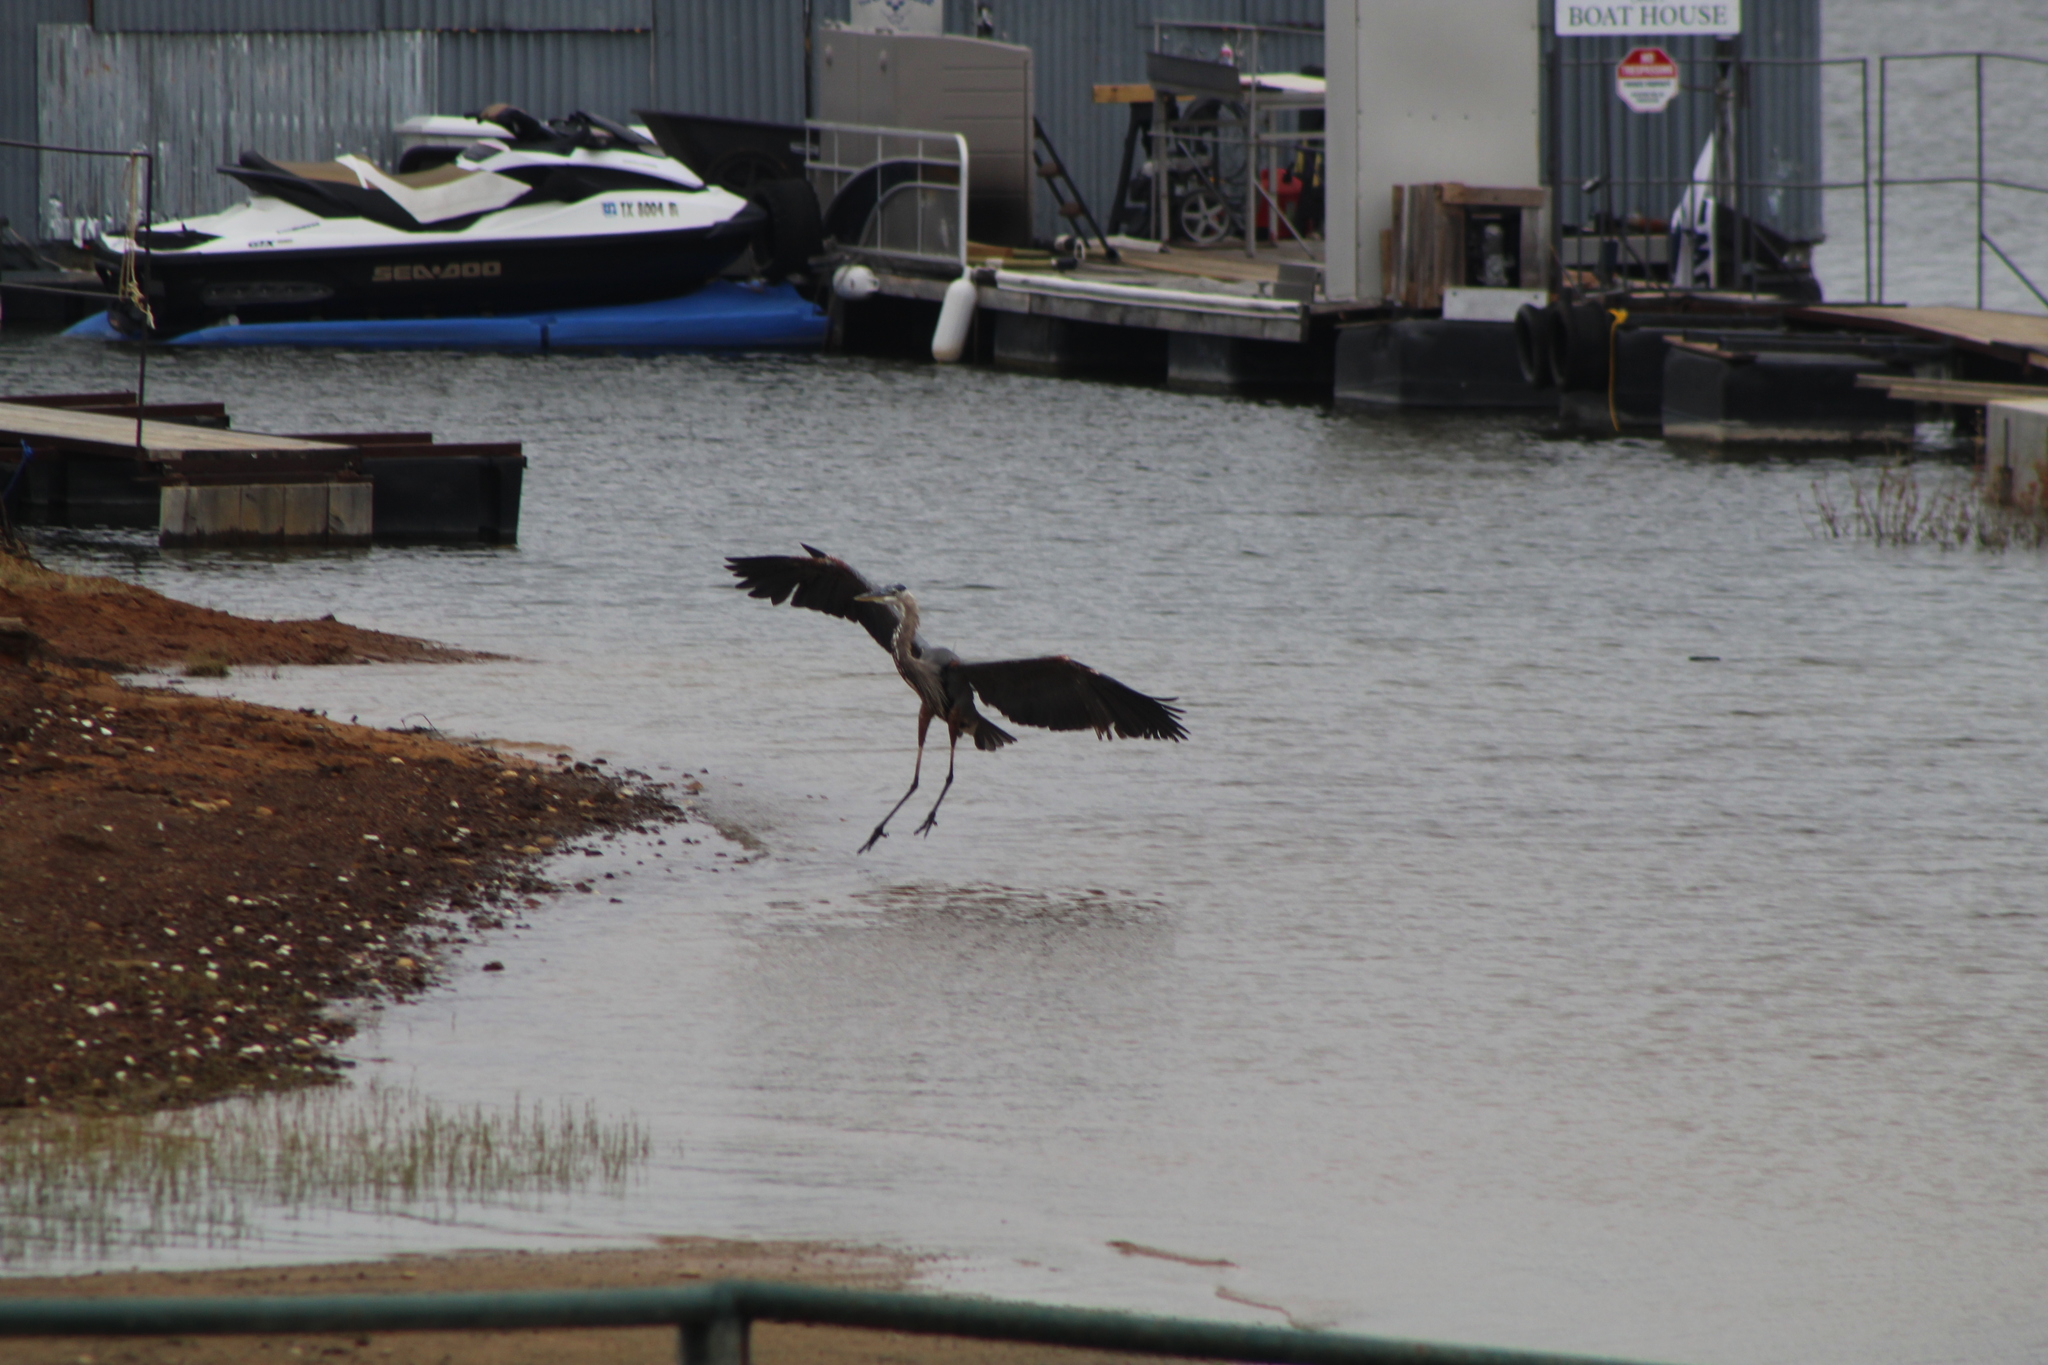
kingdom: Animalia
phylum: Chordata
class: Aves
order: Pelecaniformes
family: Ardeidae
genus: Ardea
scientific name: Ardea herodias
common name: Great blue heron
